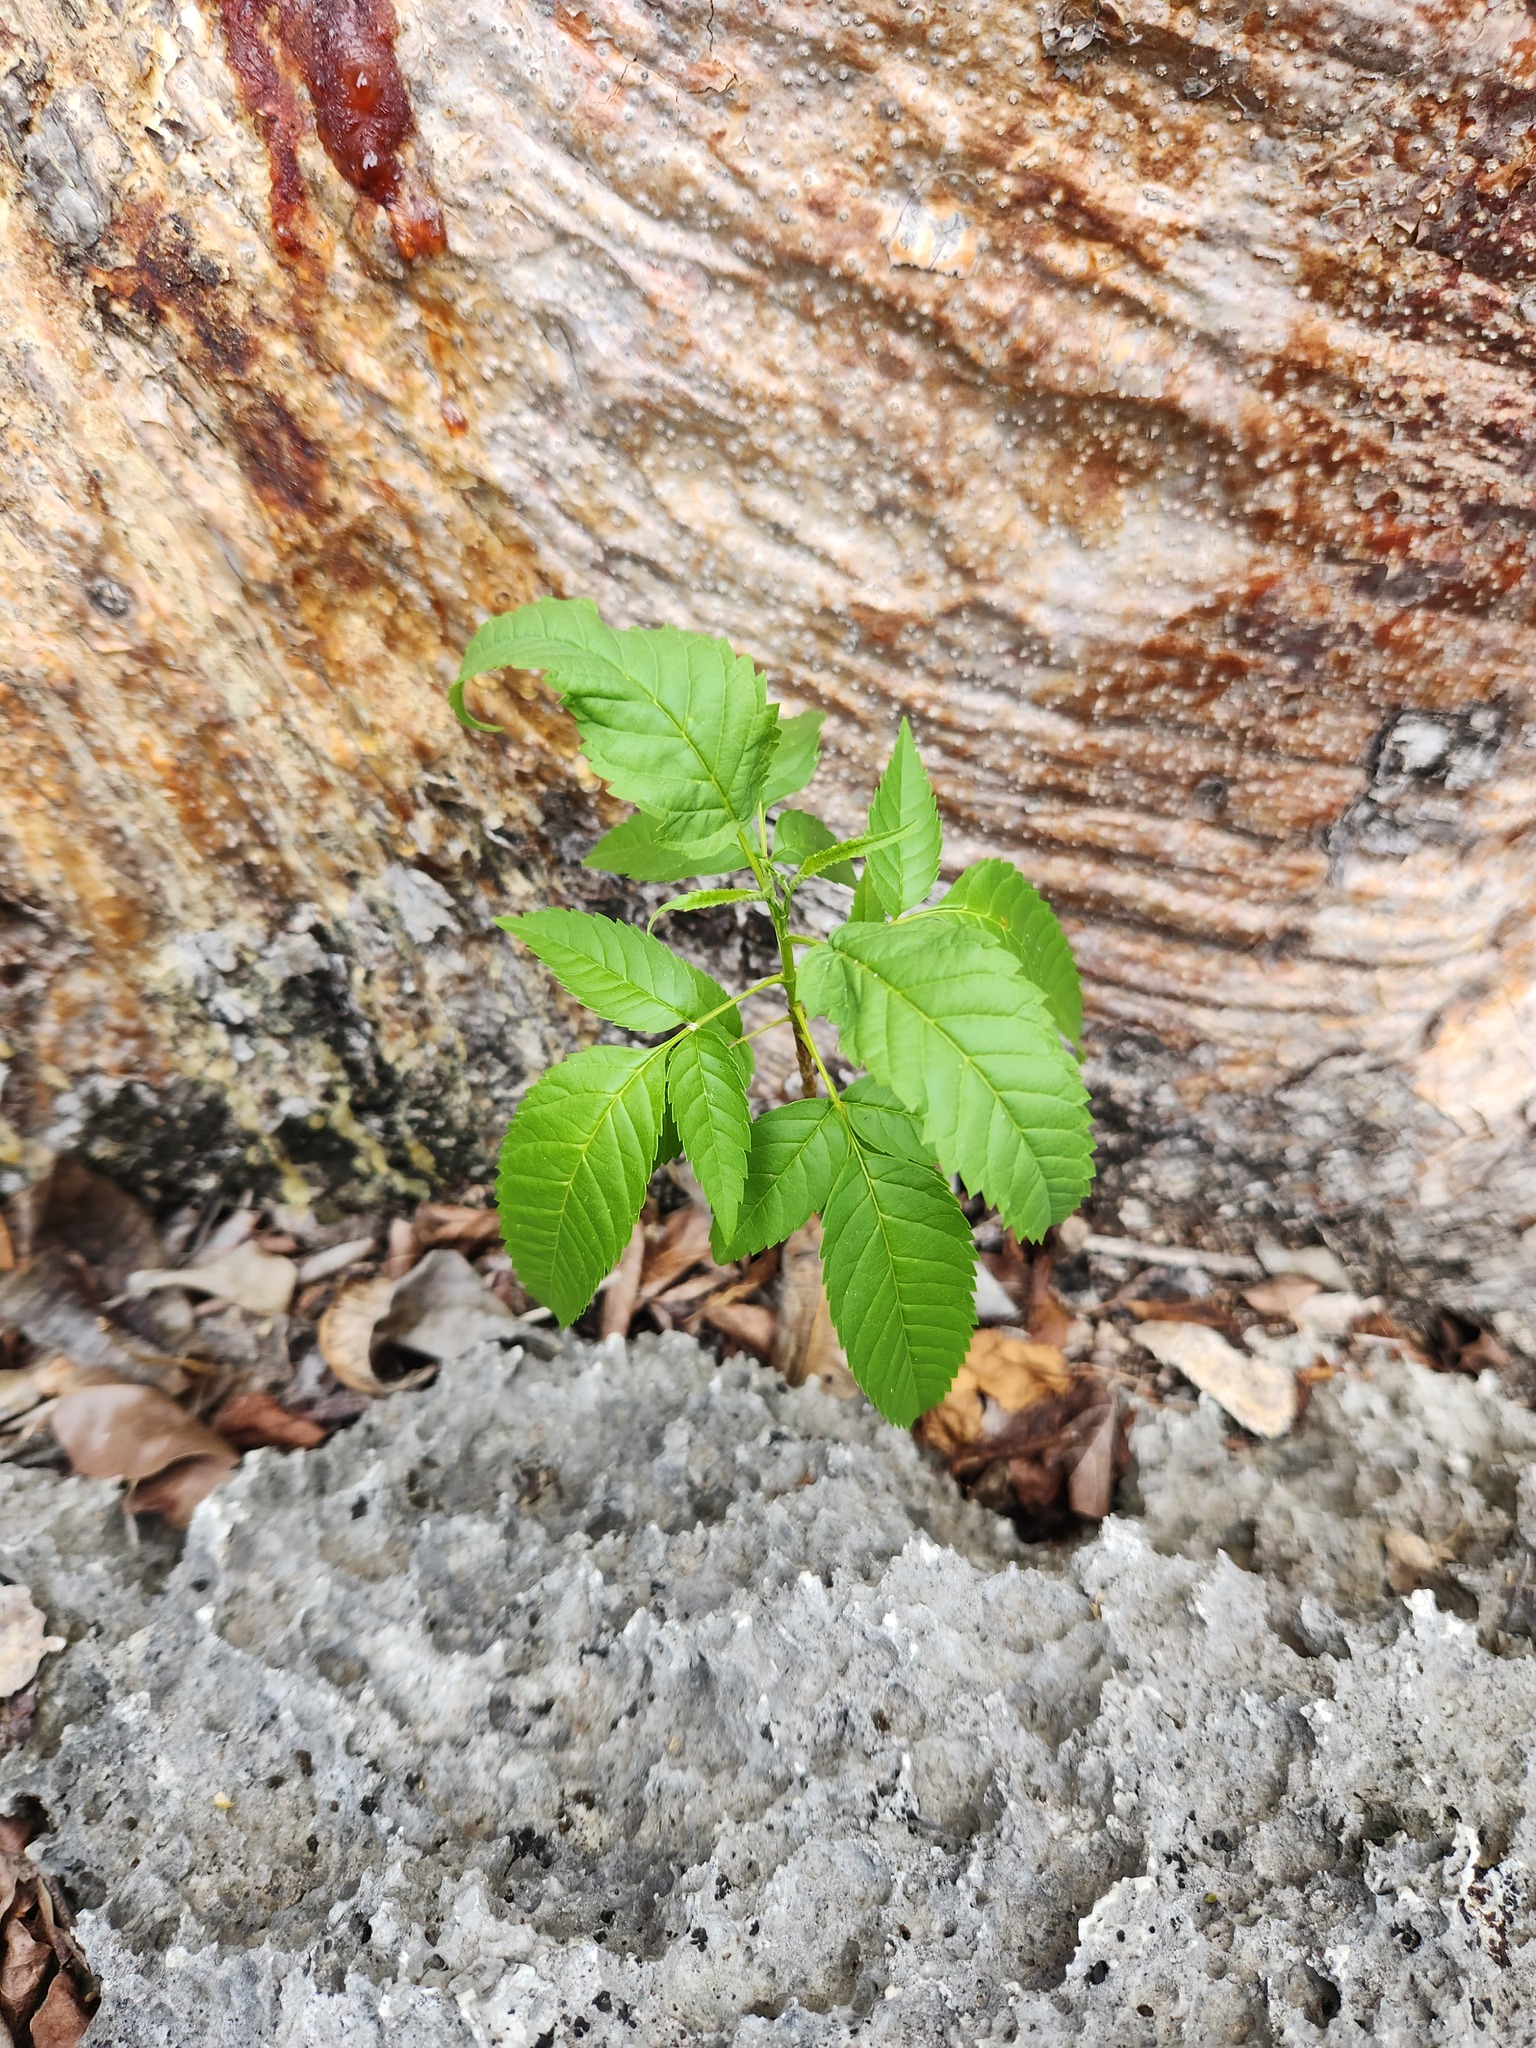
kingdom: Plantae
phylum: Tracheophyta
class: Magnoliopsida
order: Lamiales
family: Bignoniaceae
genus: Tecoma
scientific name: Tecoma stans
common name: Yellow trumpetbush
